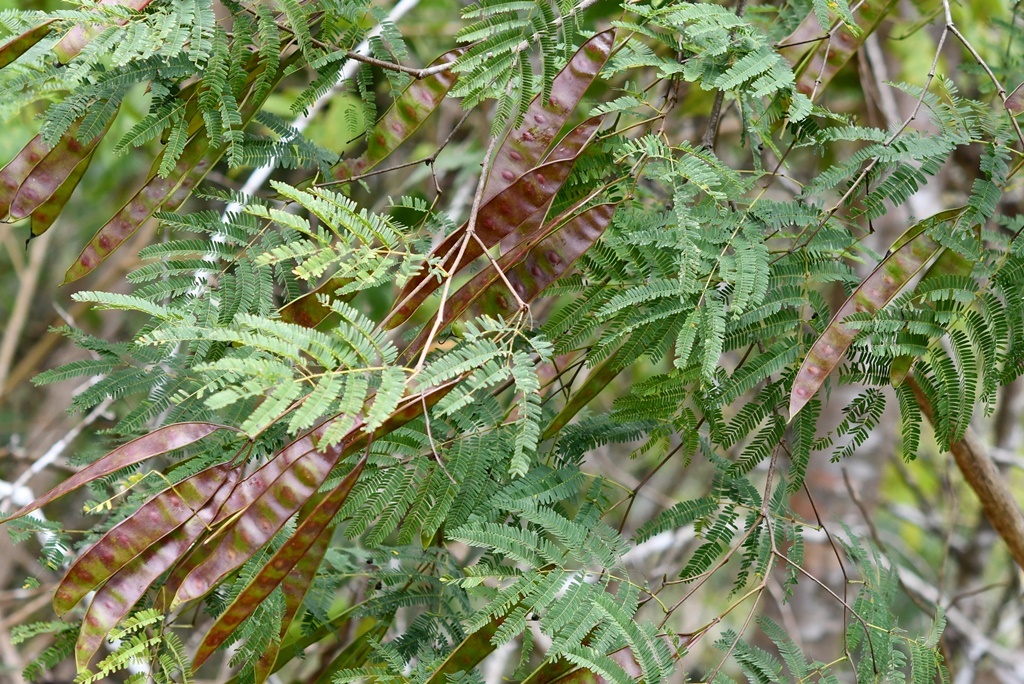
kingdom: Plantae
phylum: Tracheophyta
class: Magnoliopsida
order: Fabales
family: Fabaceae
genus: Lysiloma
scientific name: Lysiloma divaricatum
